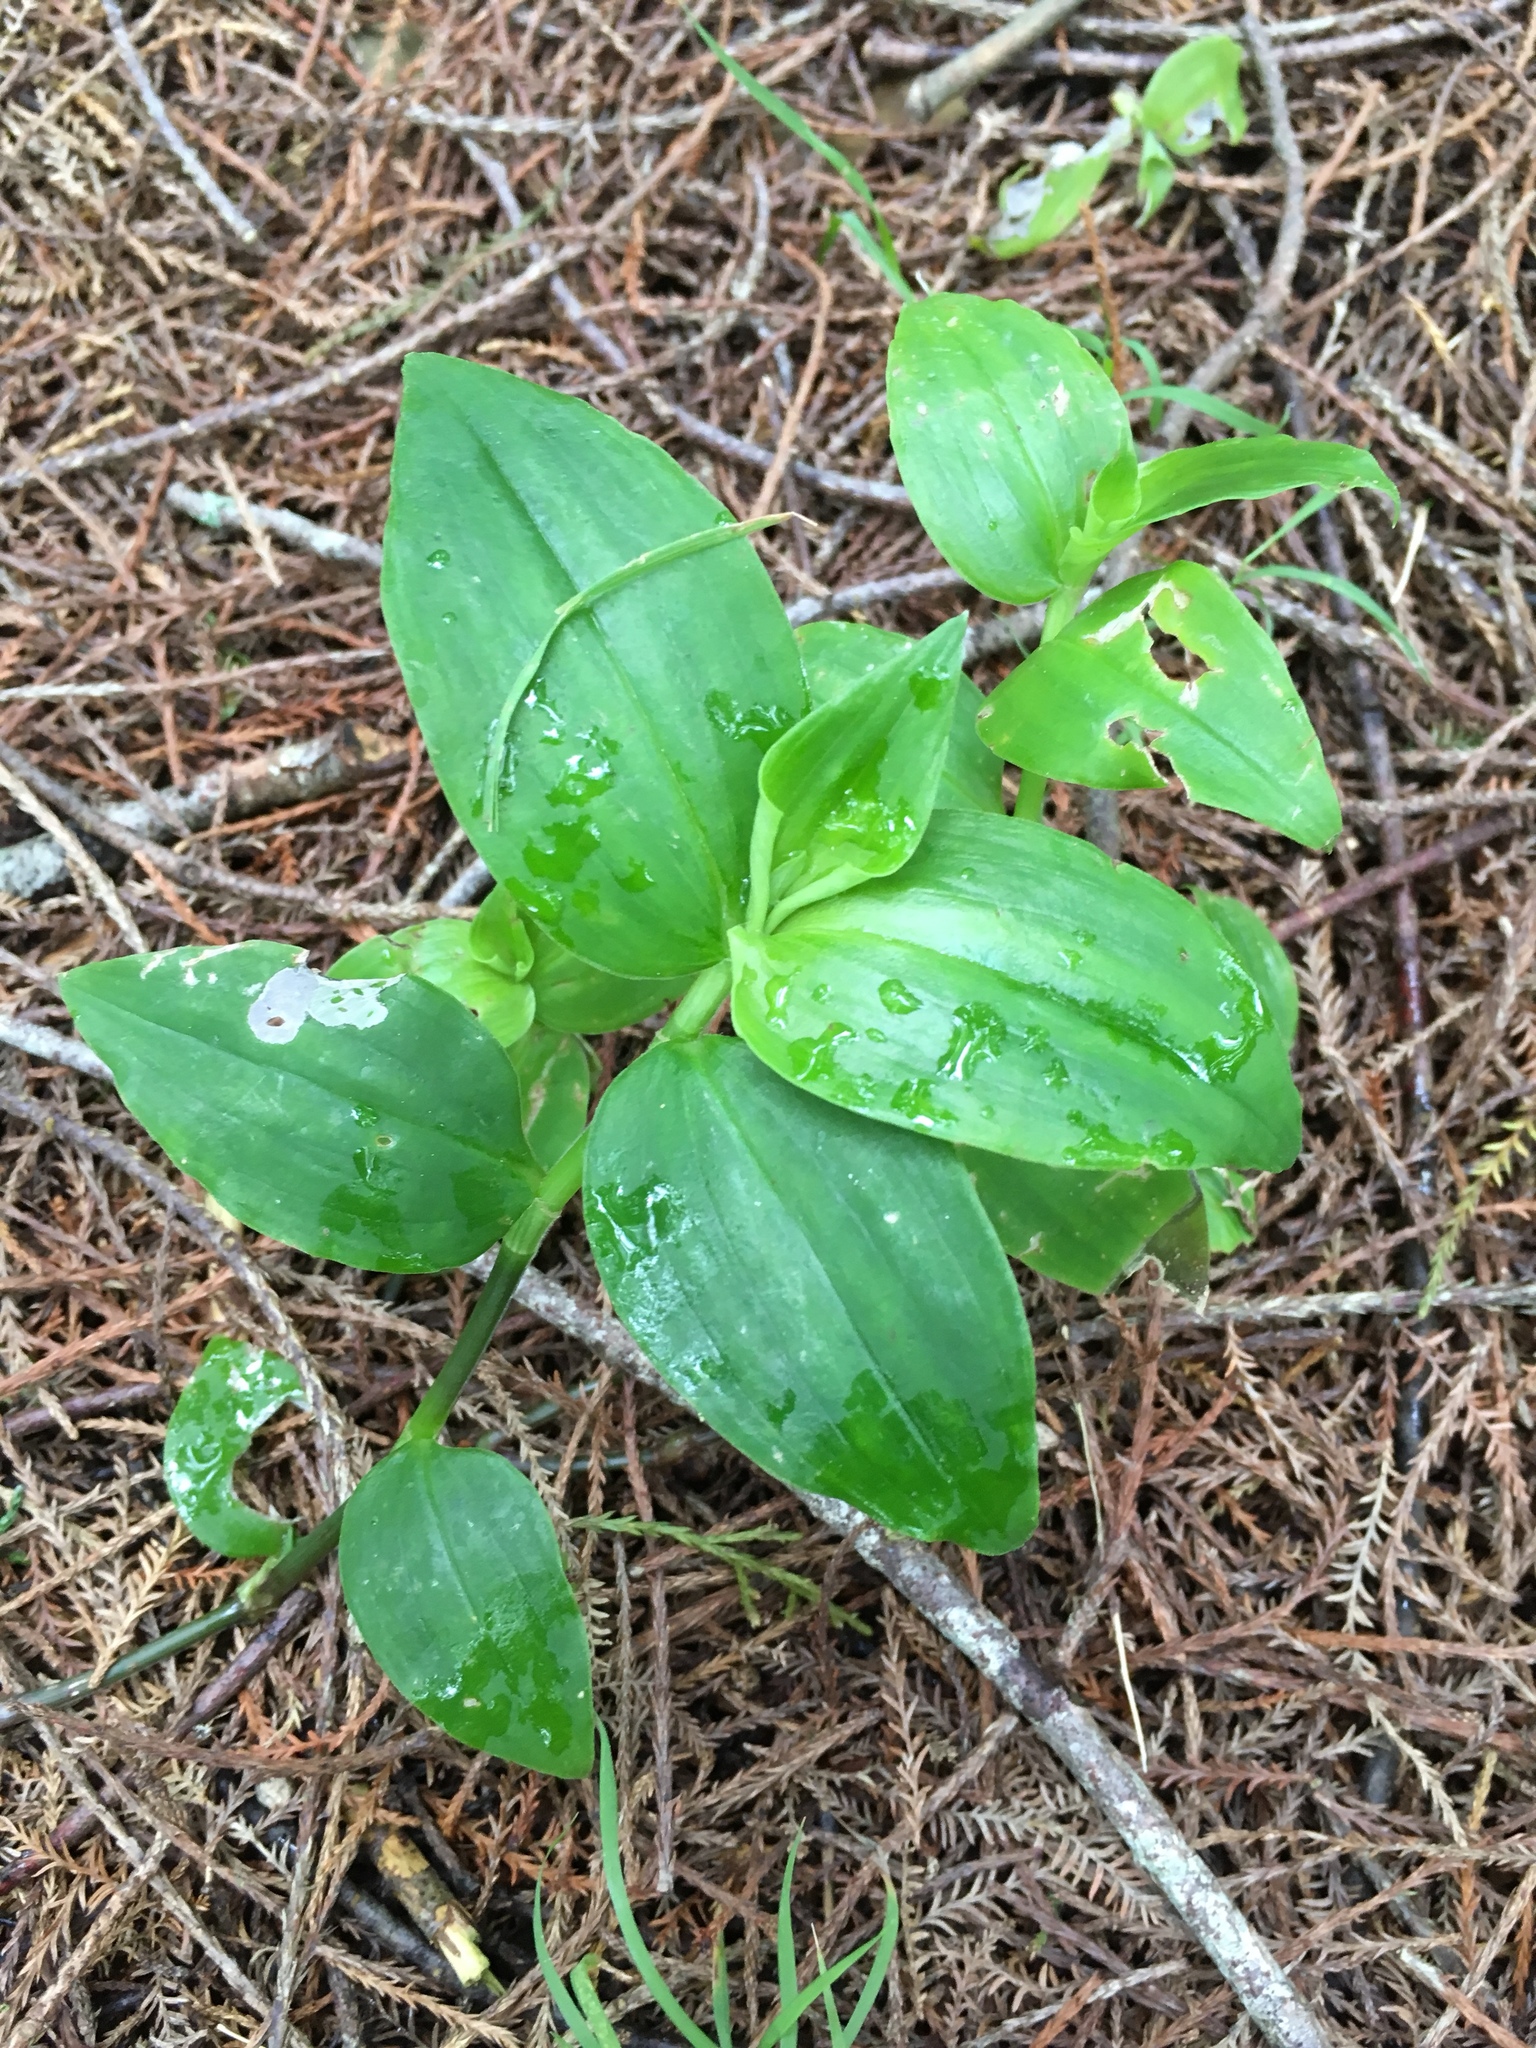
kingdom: Plantae
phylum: Tracheophyta
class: Liliopsida
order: Commelinales
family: Commelinaceae
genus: Tradescantia
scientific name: Tradescantia fluminensis
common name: Wandering-jew
